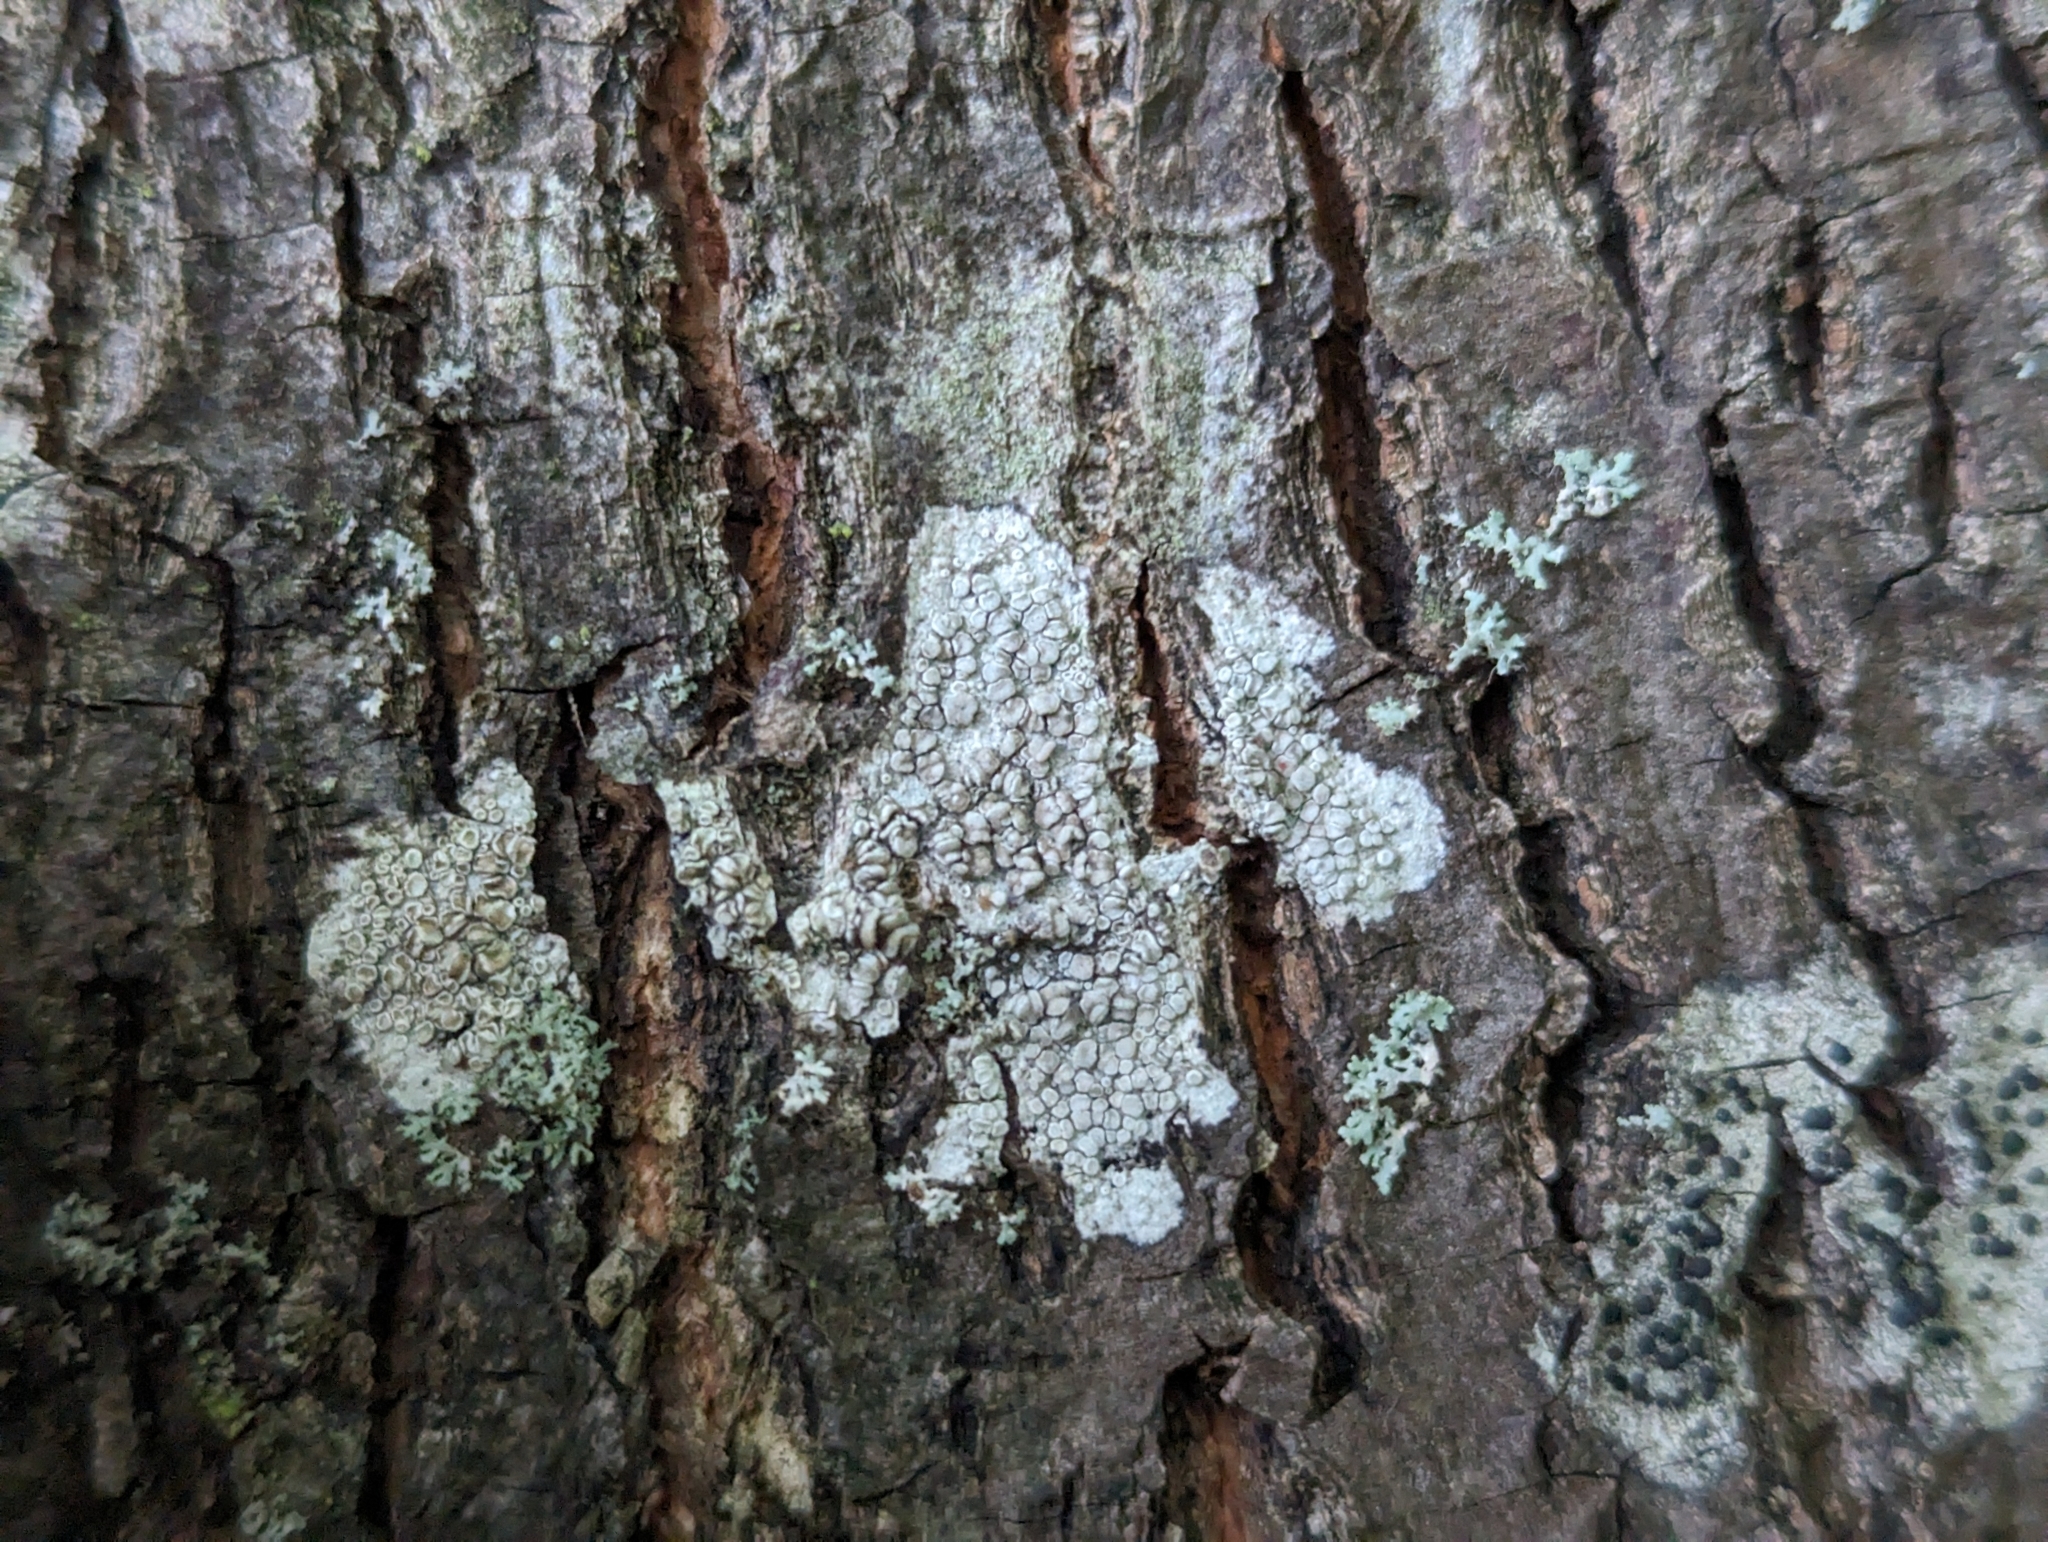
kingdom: Fungi
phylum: Ascomycota
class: Lecanoromycetes
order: Lecanorales
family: Lecanoraceae
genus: Glaucomaria
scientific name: Glaucomaria carpinea
